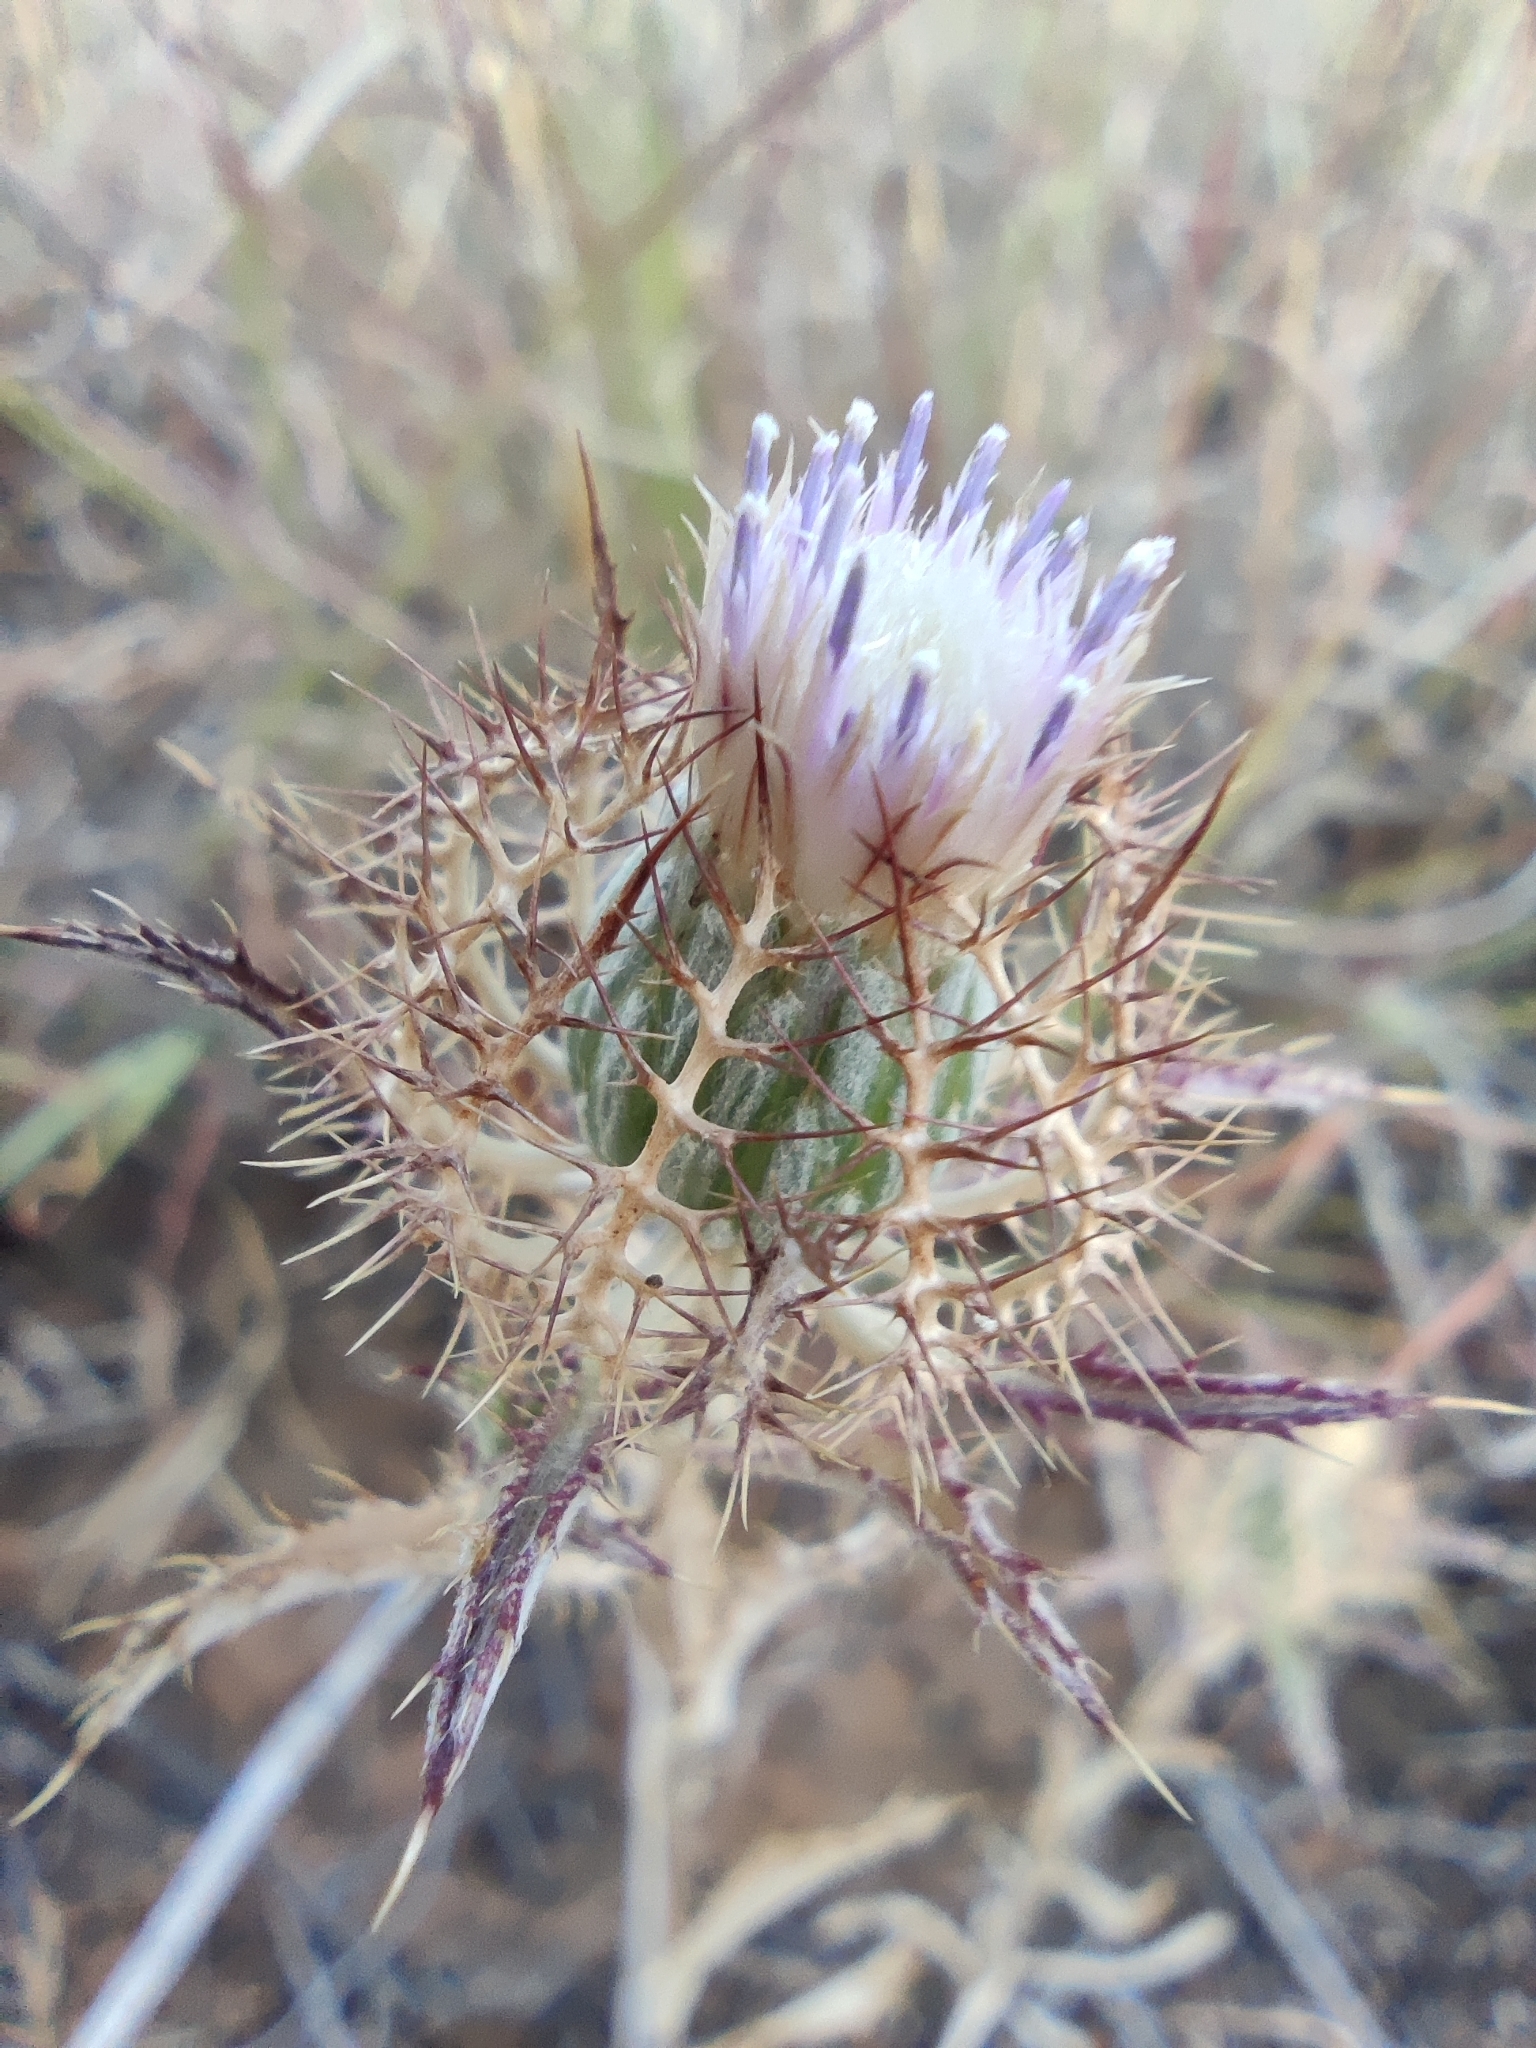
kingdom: Plantae
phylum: Tracheophyta
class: Magnoliopsida
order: Asterales
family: Asteraceae
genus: Atractylis
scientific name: Atractylis cancellata
